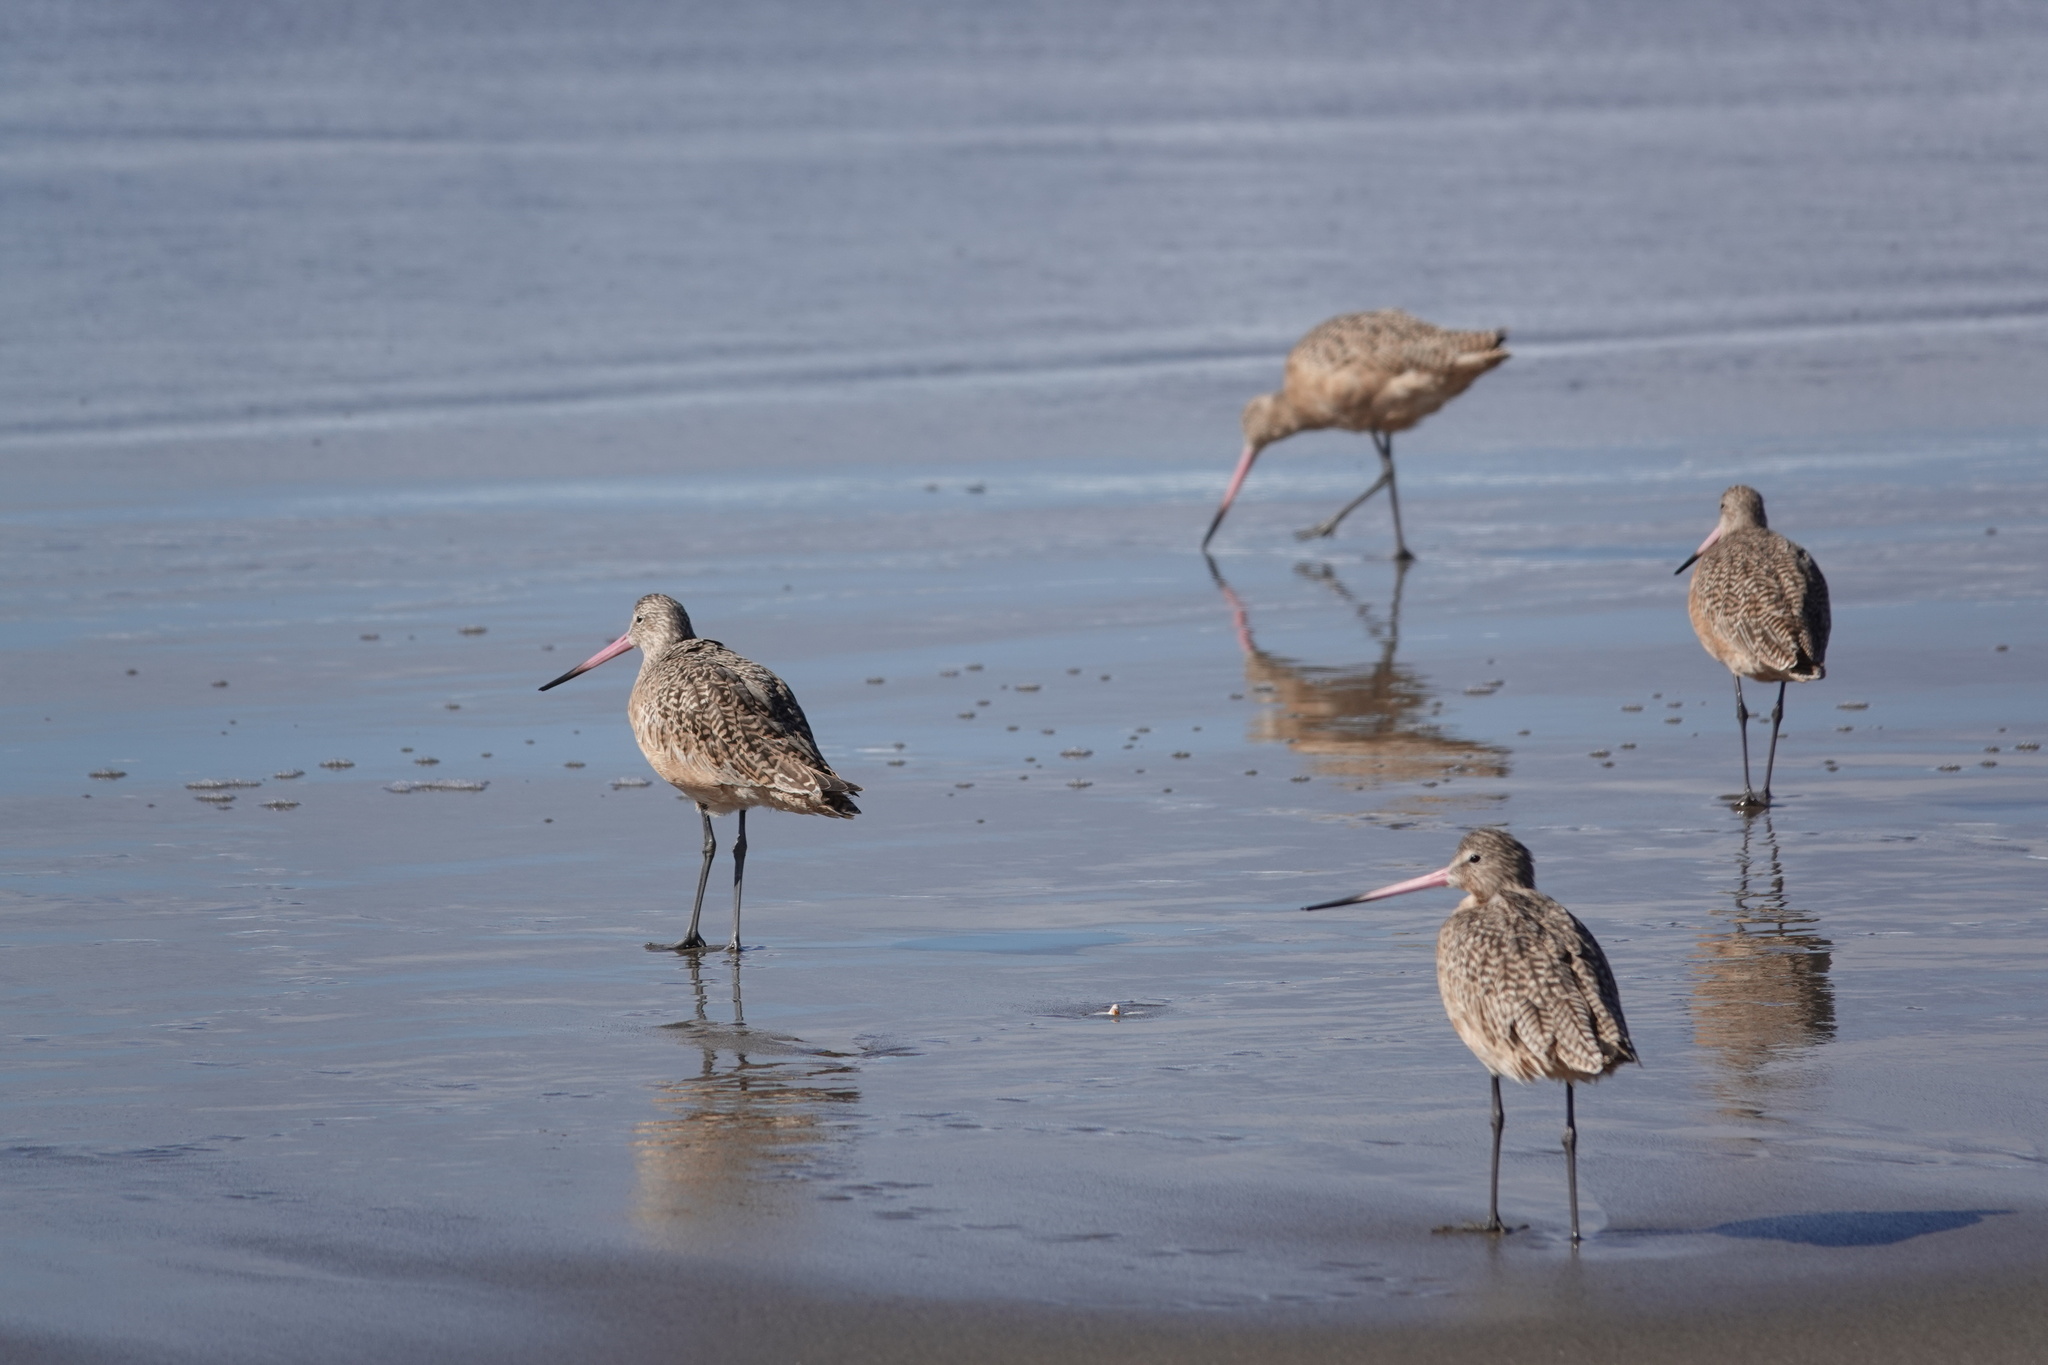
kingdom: Animalia
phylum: Chordata
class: Aves
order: Charadriiformes
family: Scolopacidae
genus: Limosa
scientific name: Limosa fedoa
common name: Marbled godwit
